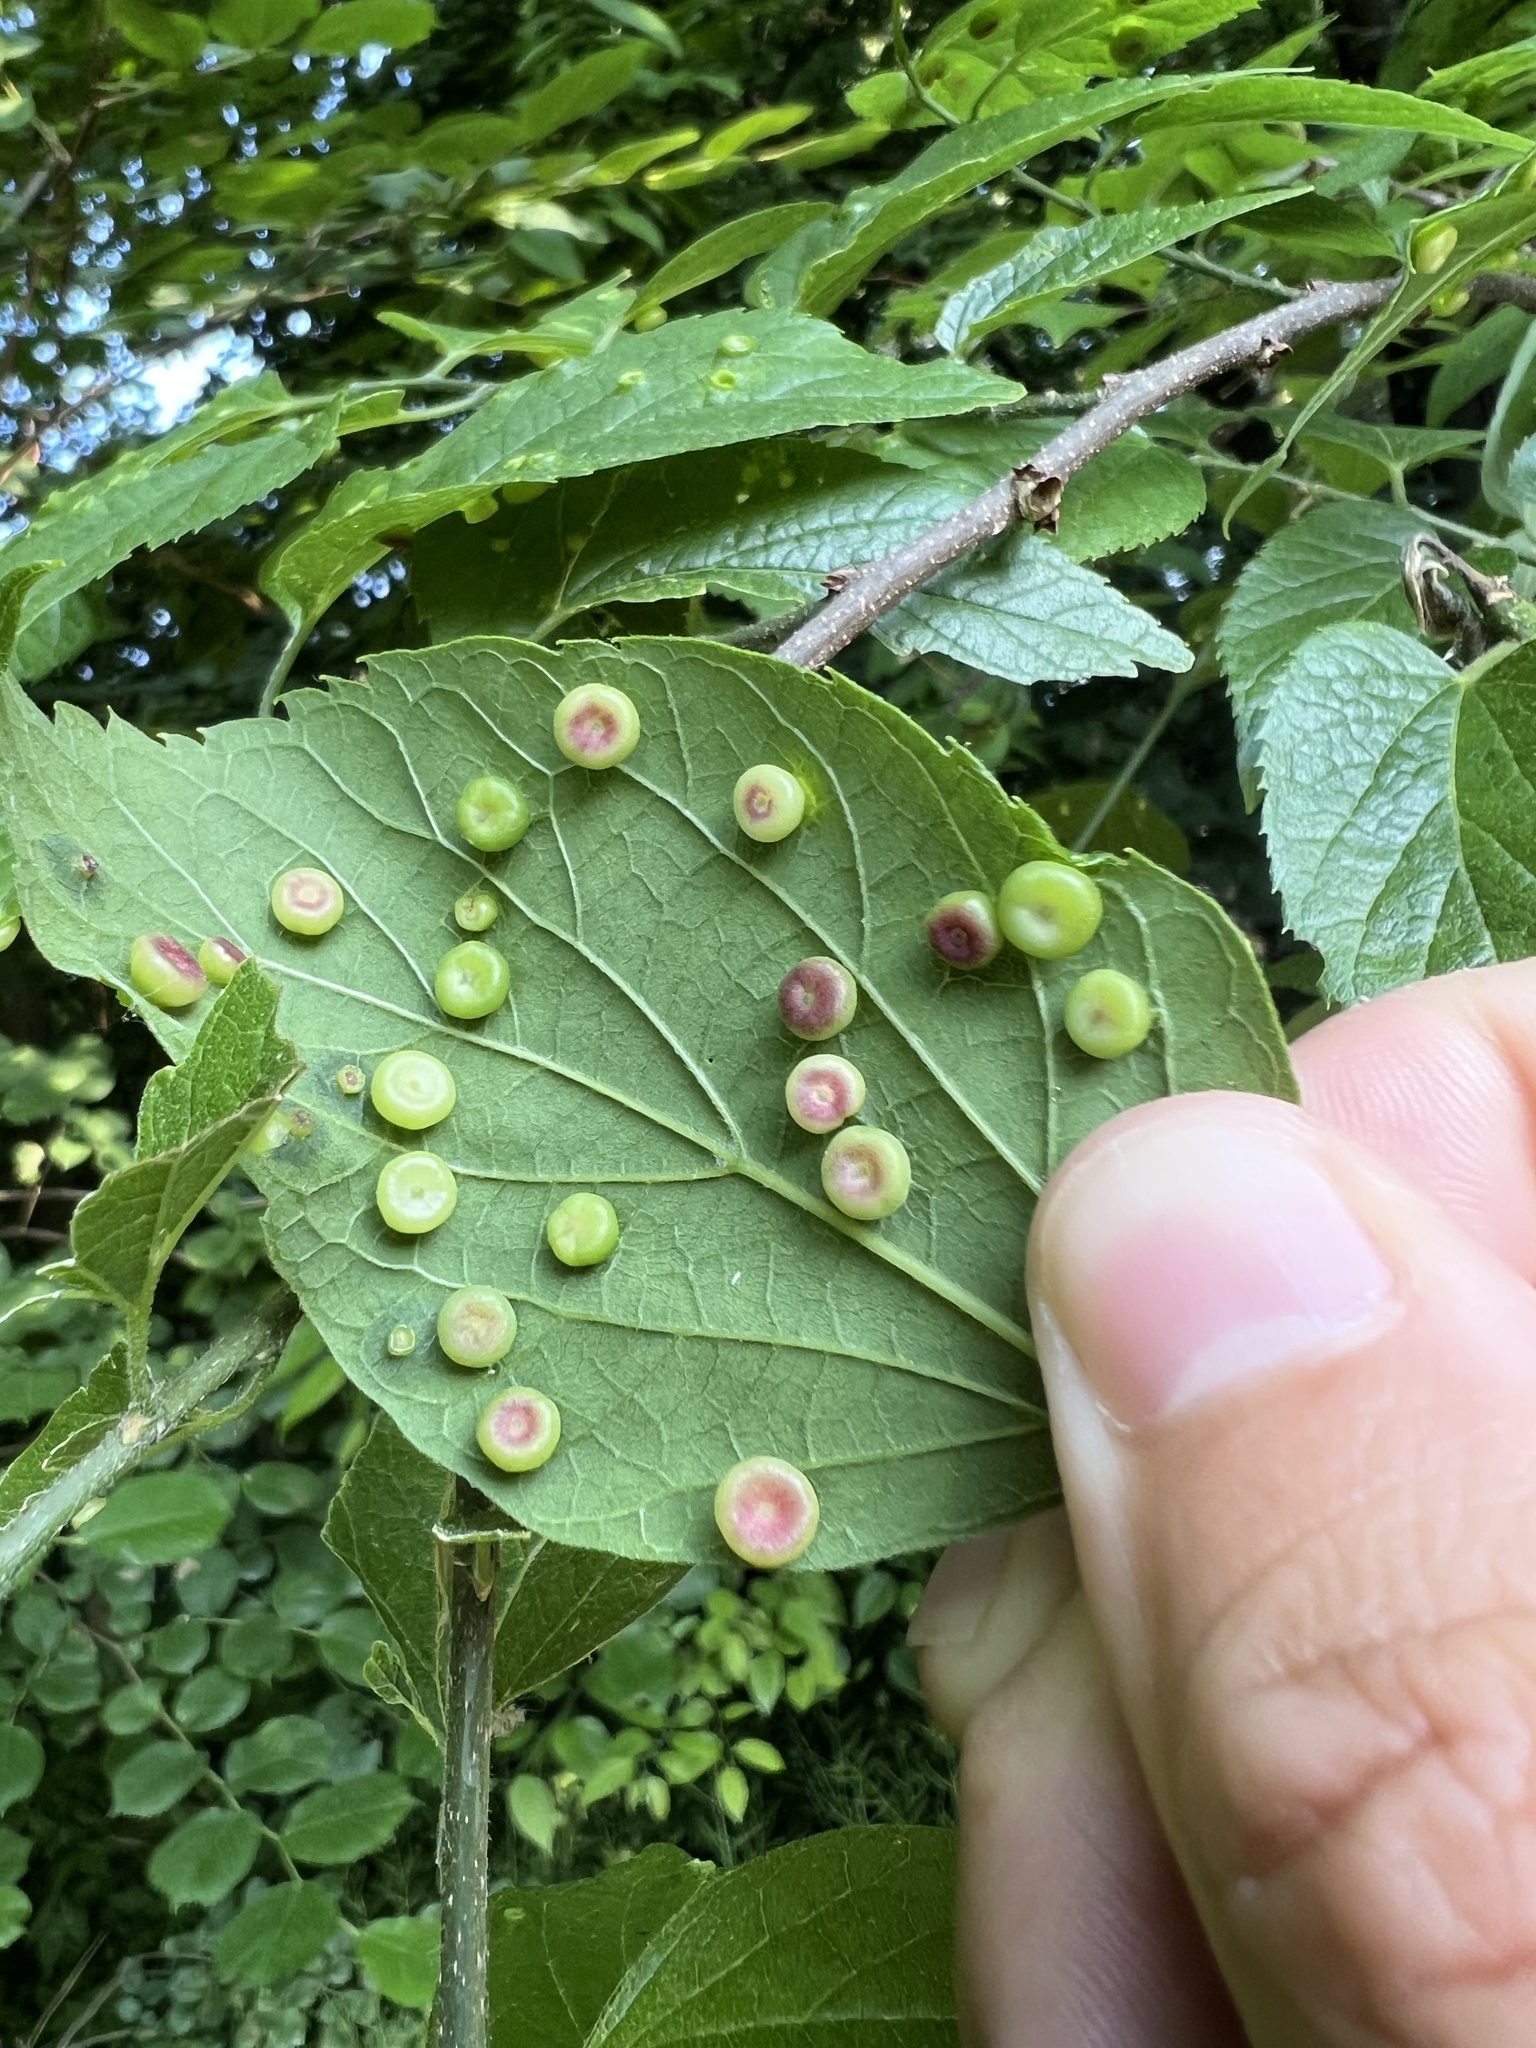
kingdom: Animalia
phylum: Arthropoda
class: Insecta
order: Hemiptera
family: Aphalaridae
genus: Pachypsylla
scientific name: Pachypsylla celtidismamma
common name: Hackberry nipplegall psyllid
